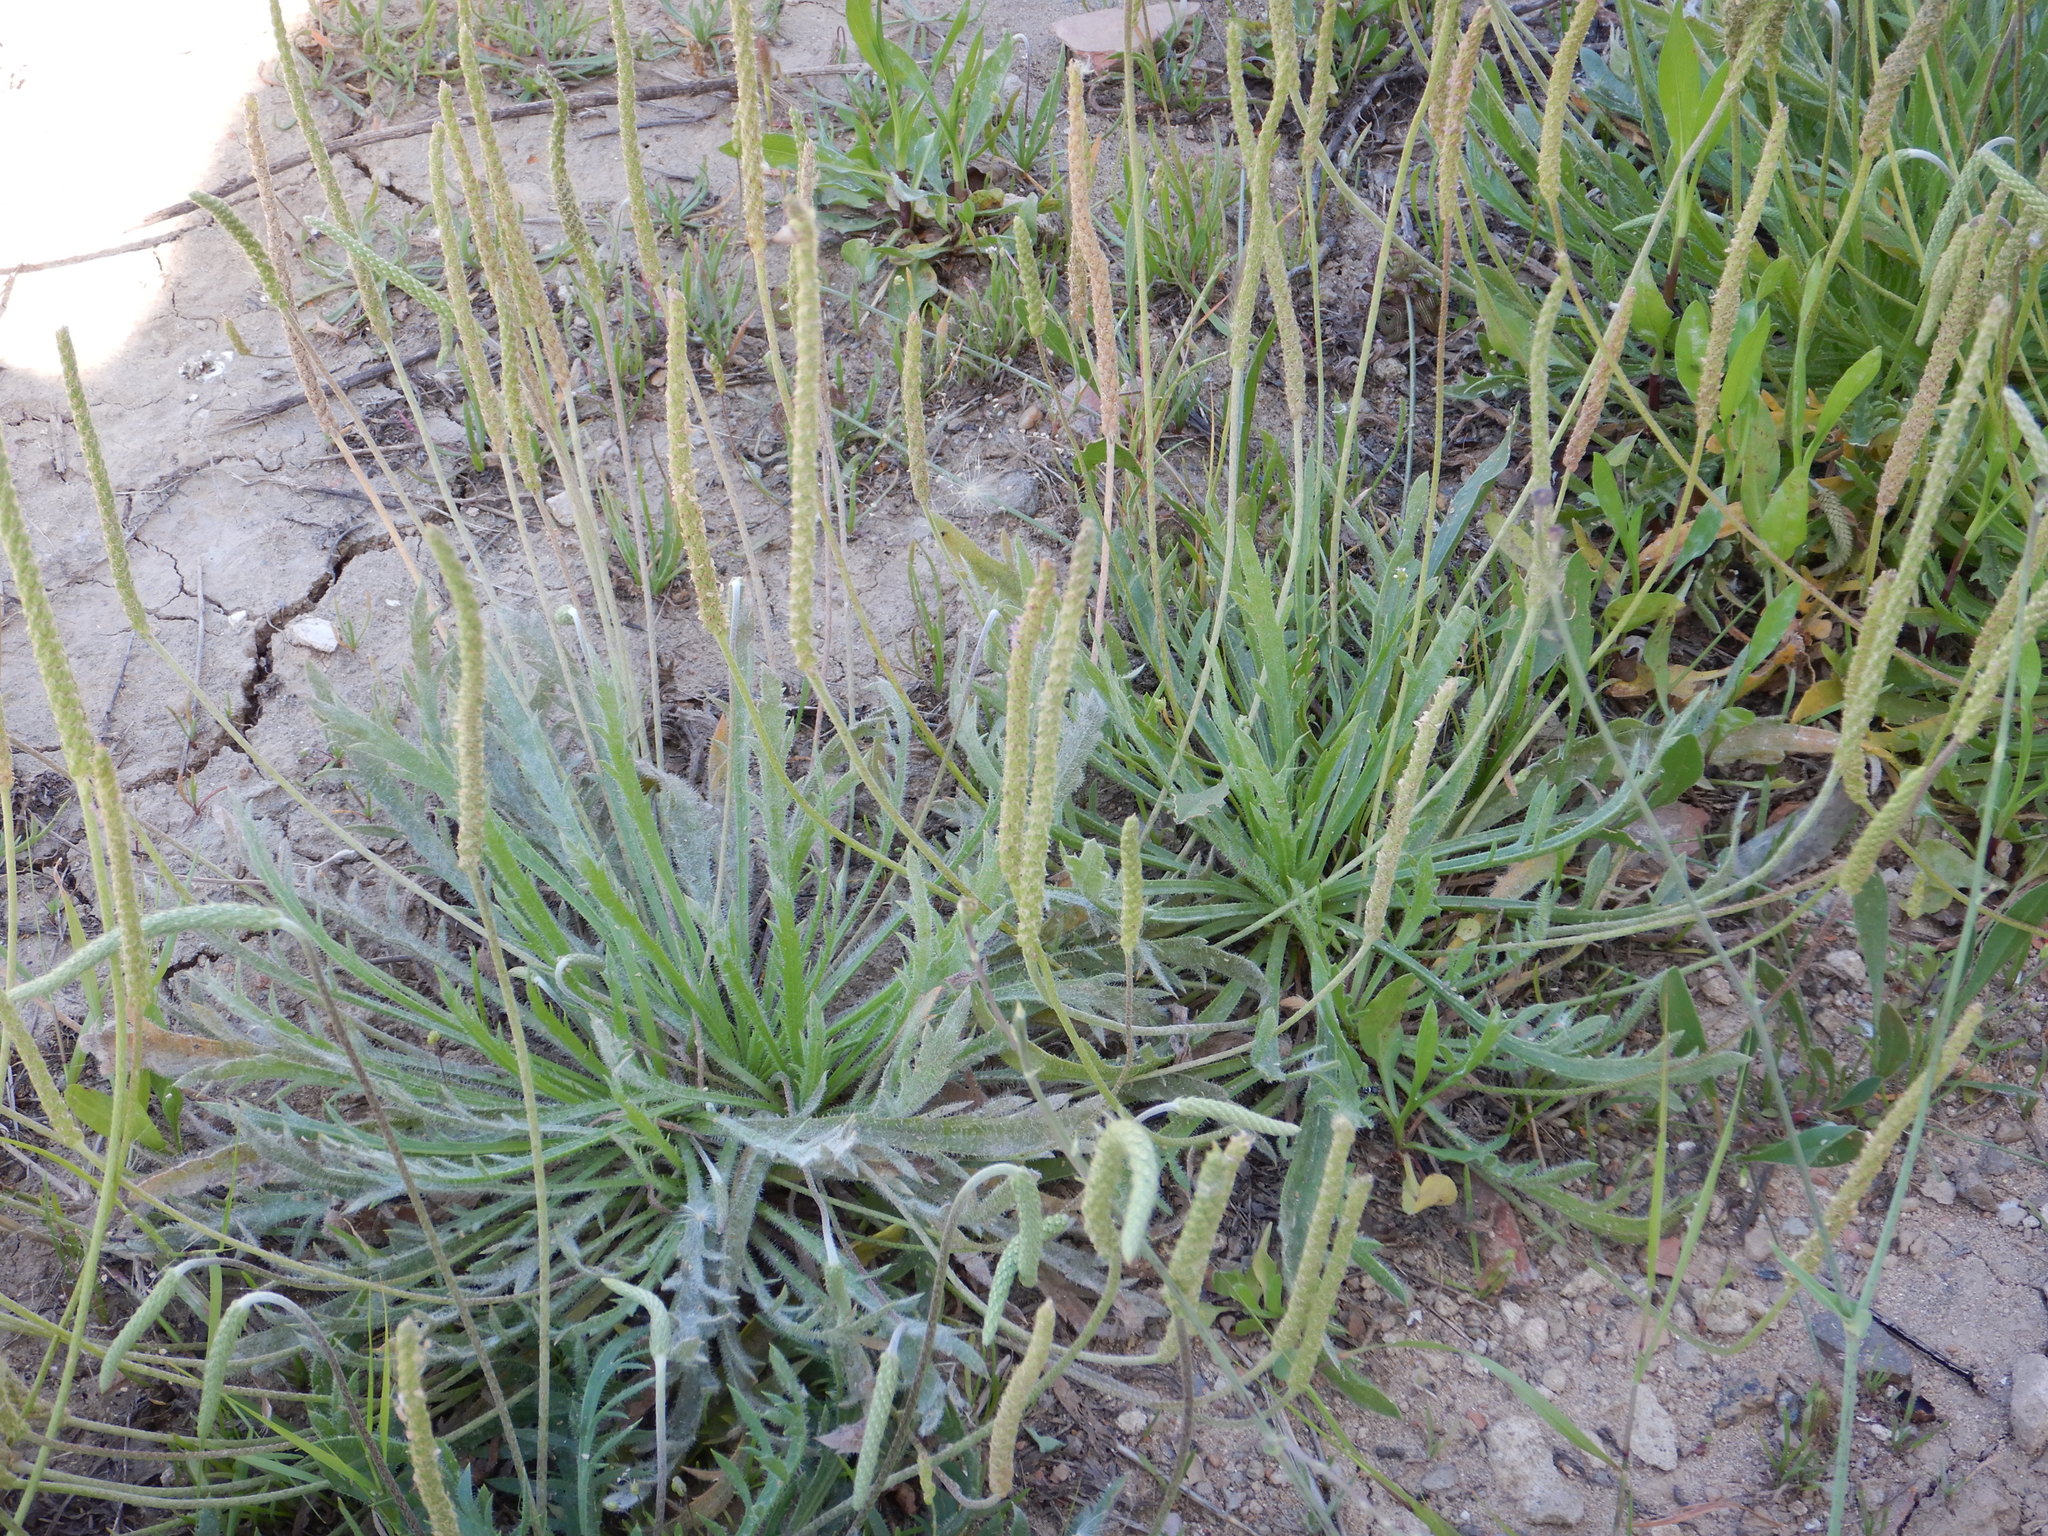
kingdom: Plantae
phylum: Tracheophyta
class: Magnoliopsida
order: Lamiales
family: Plantaginaceae
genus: Plantago
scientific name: Plantago coronopus
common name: Buck's-horn plantain
